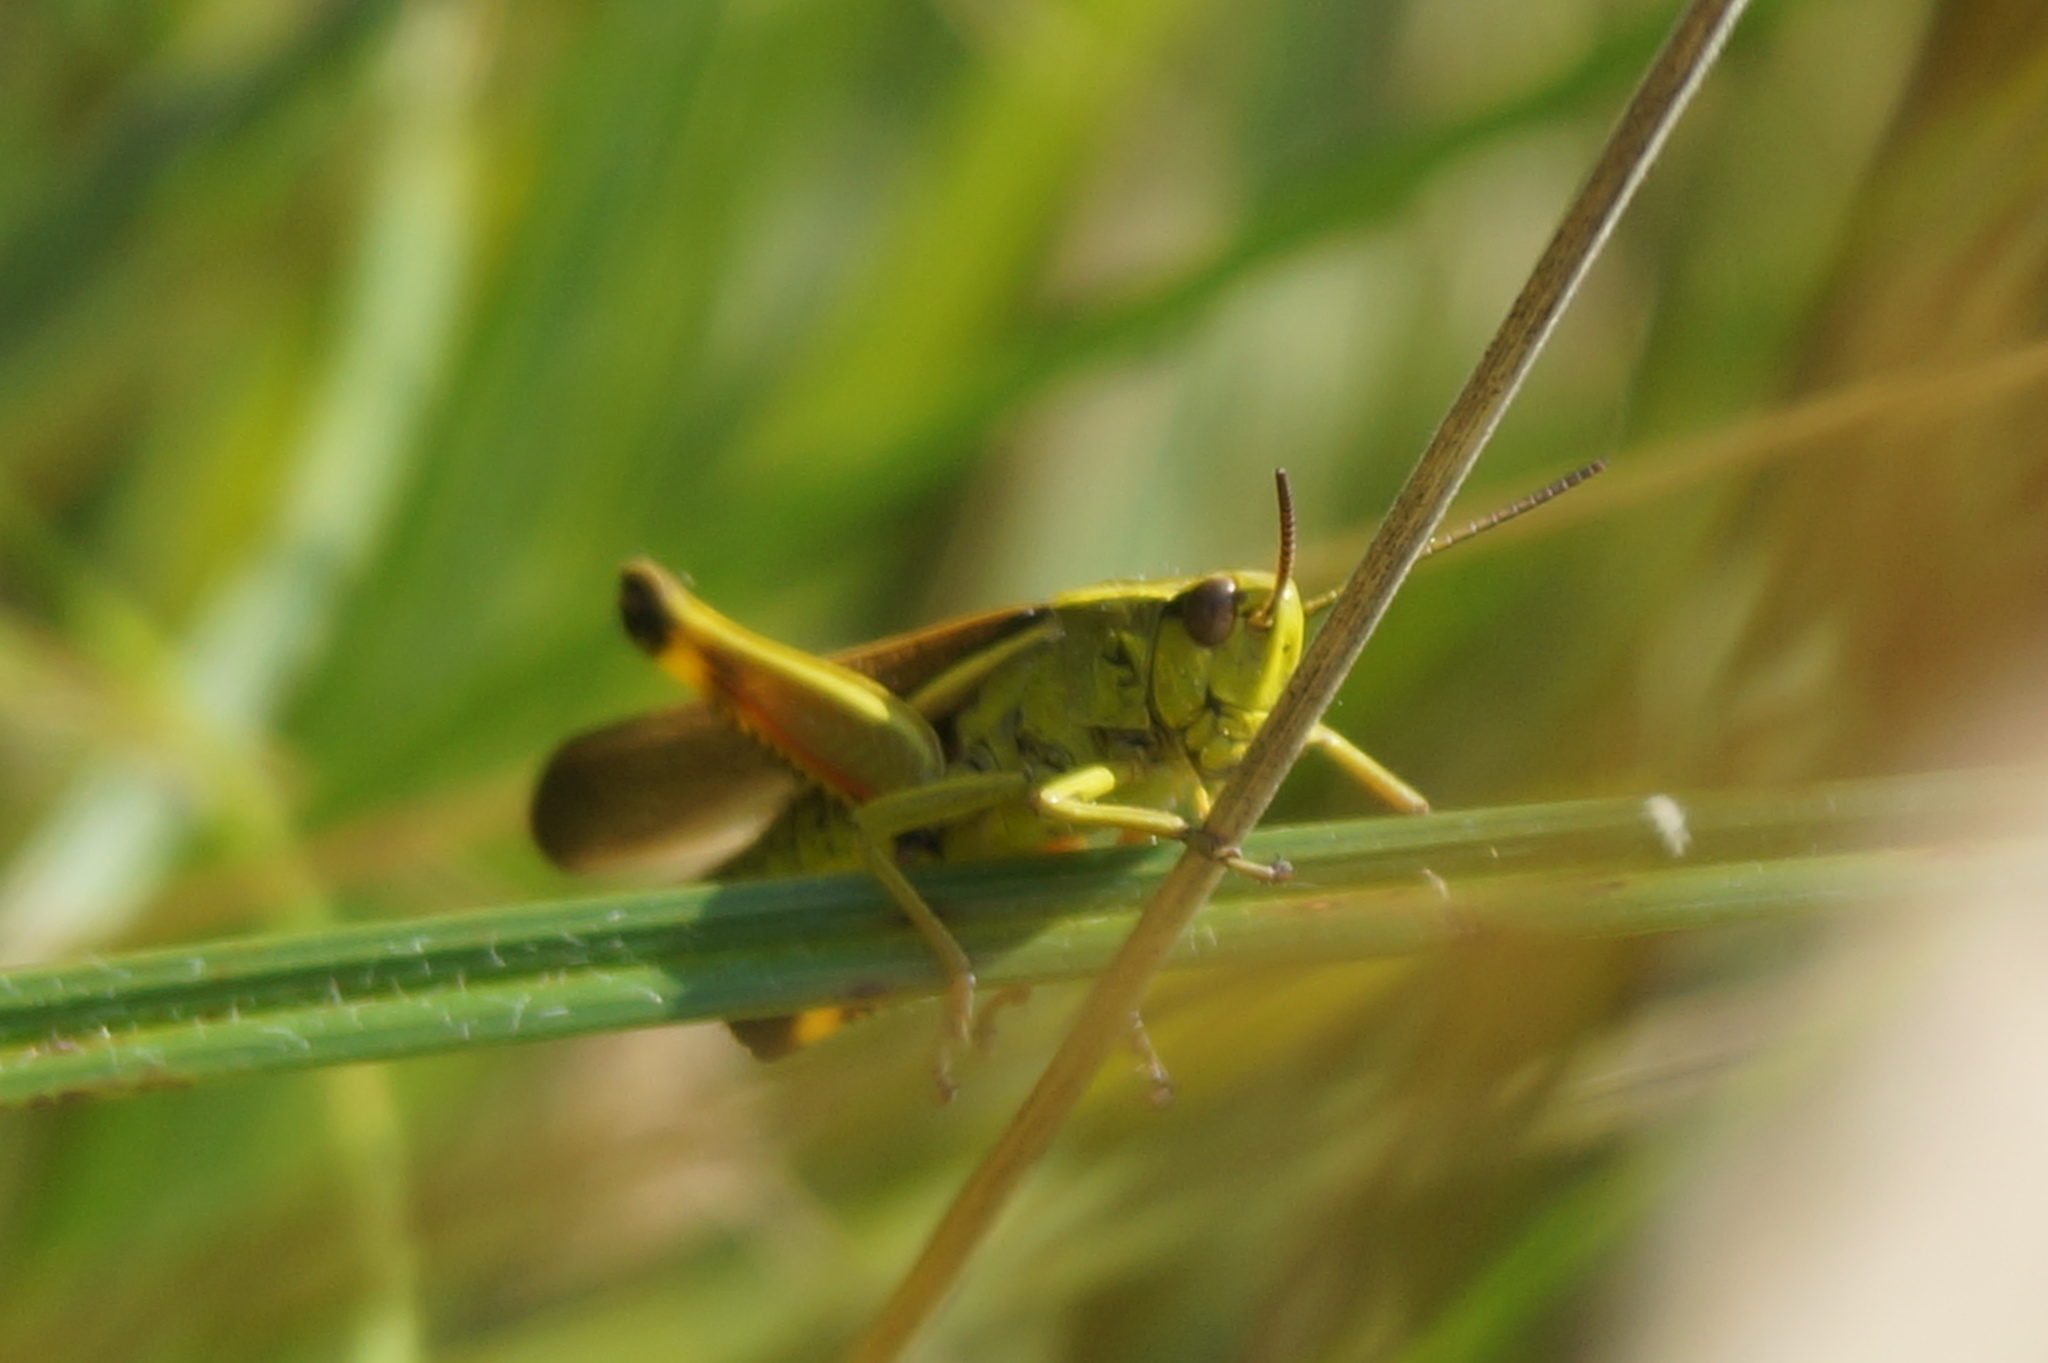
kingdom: Animalia
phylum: Arthropoda
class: Insecta
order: Orthoptera
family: Acrididae
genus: Stethophyma
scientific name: Stethophyma grossum
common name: Large marsh grasshopper
